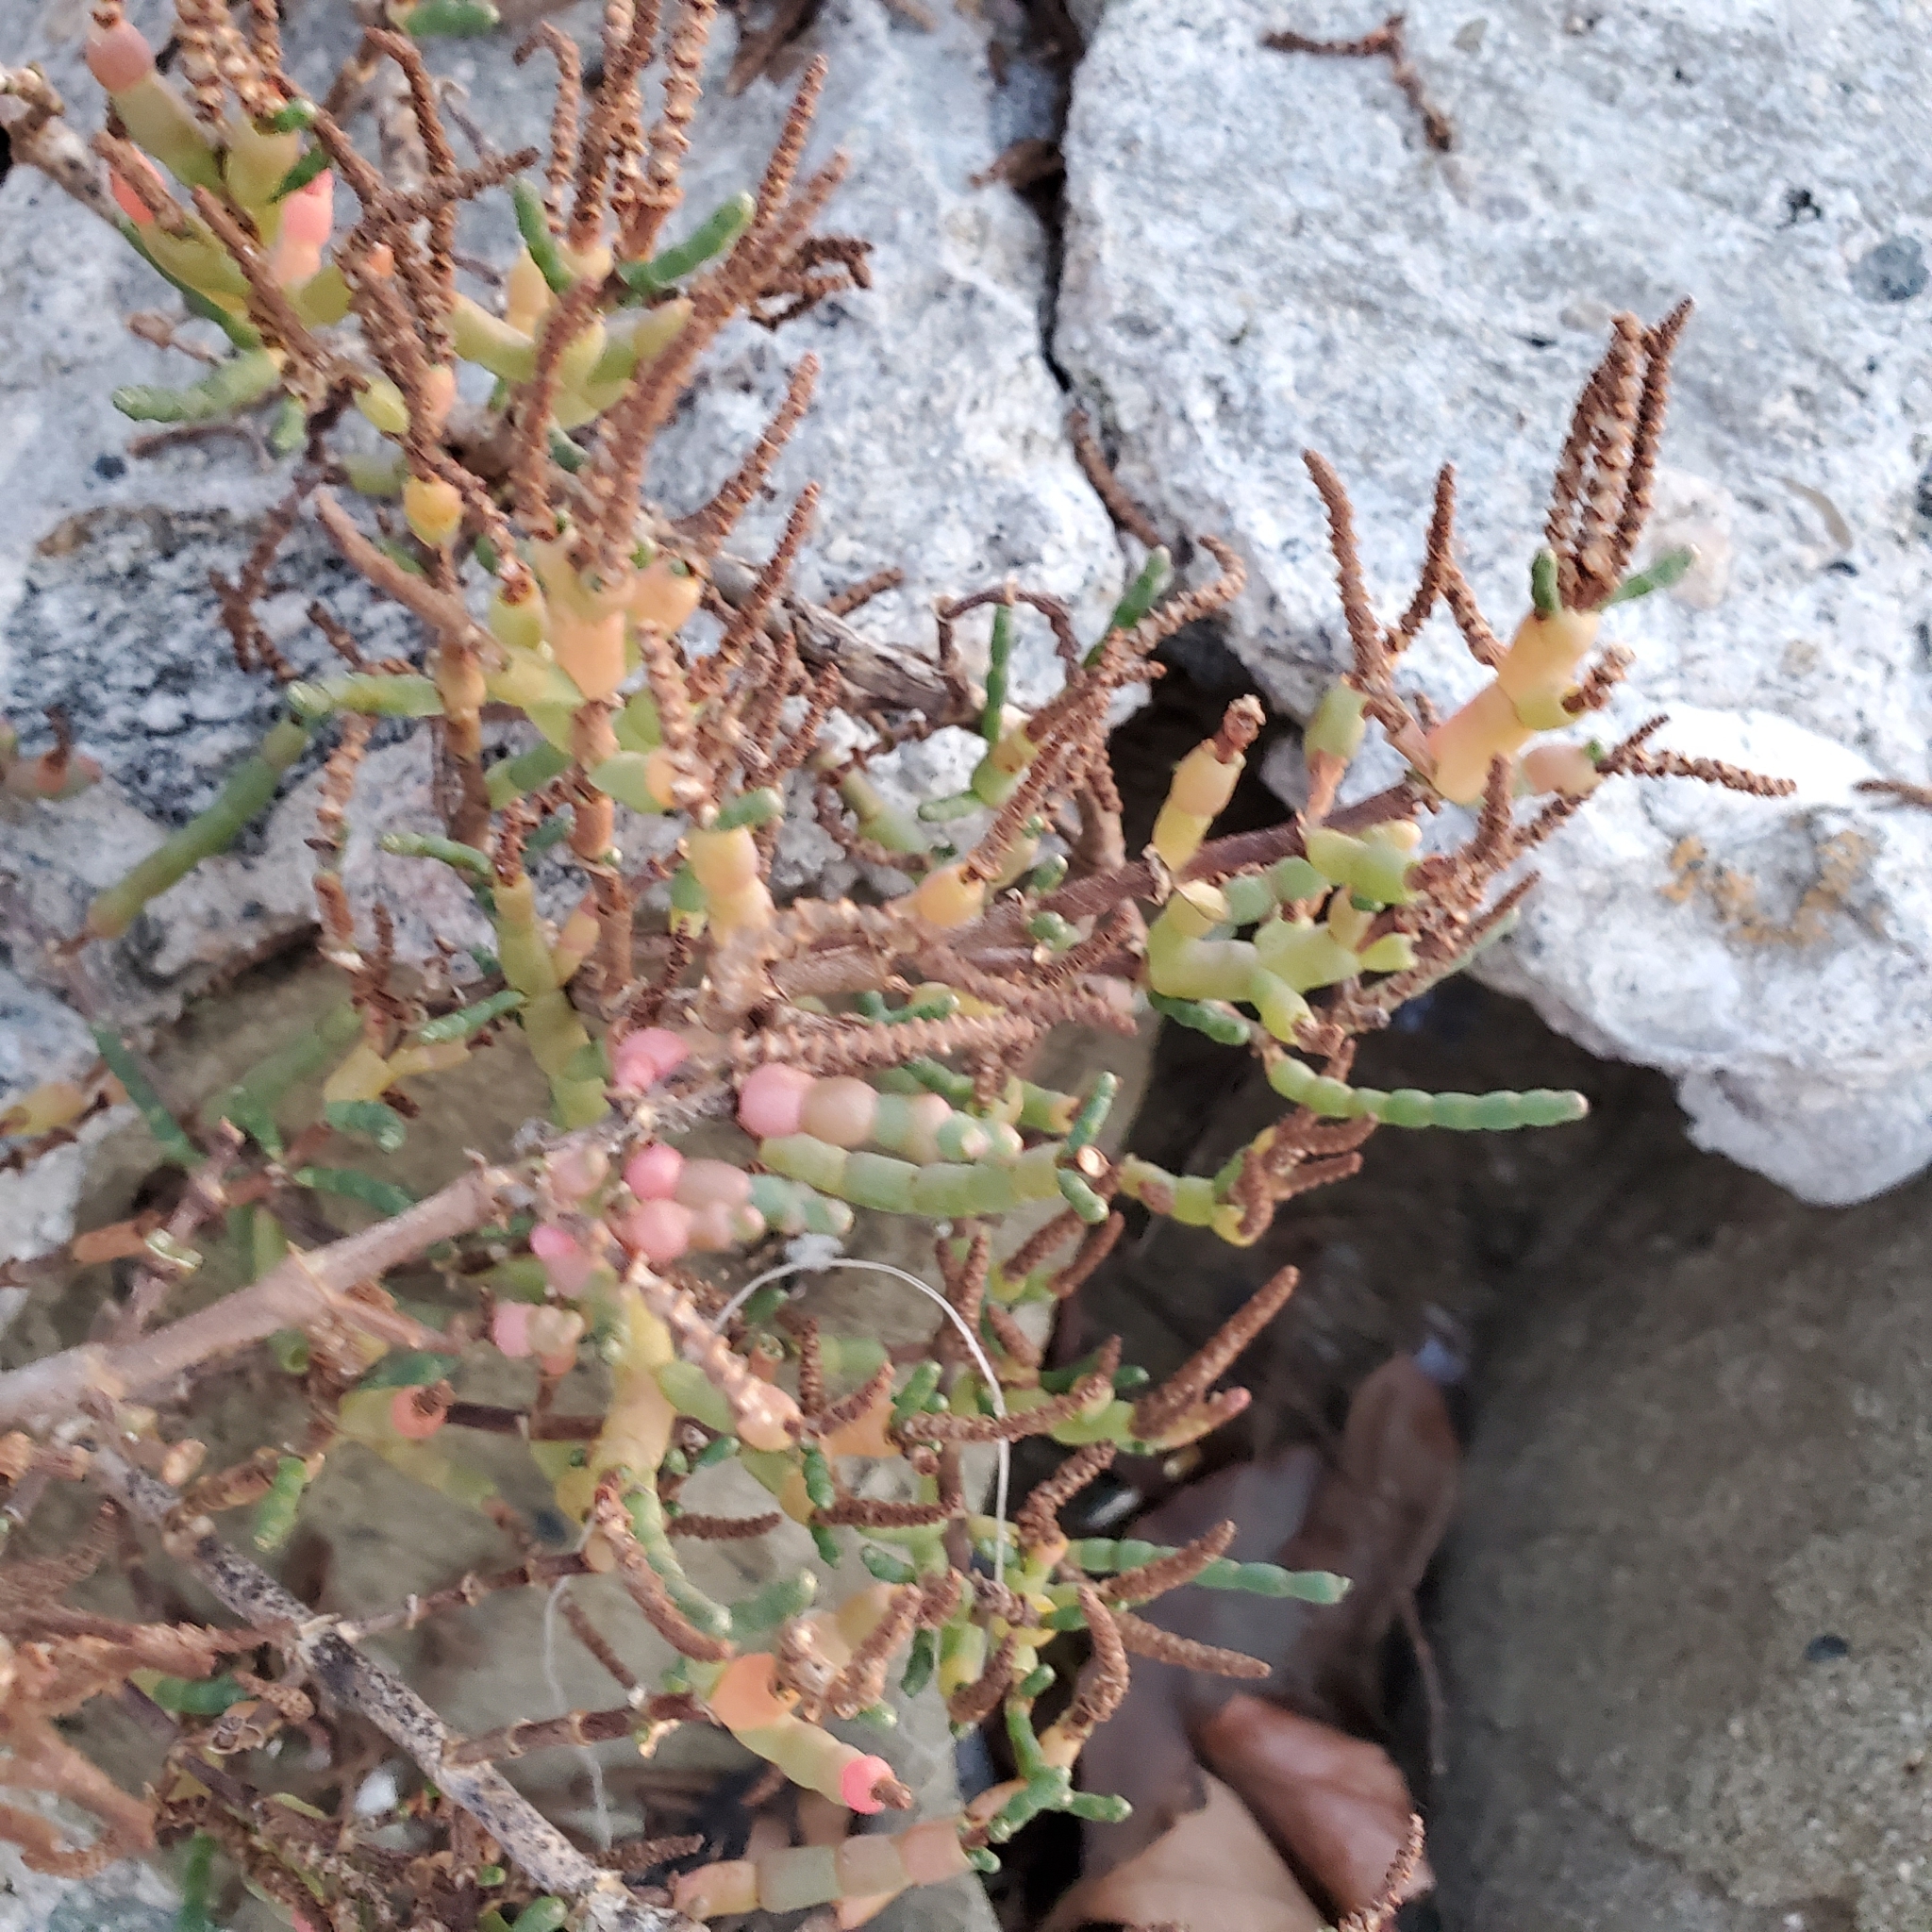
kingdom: Plantae
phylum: Tracheophyta
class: Magnoliopsida
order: Caryophyllales
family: Amaranthaceae
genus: Salicornia
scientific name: Salicornia pacifica
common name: Pacific glasswort
